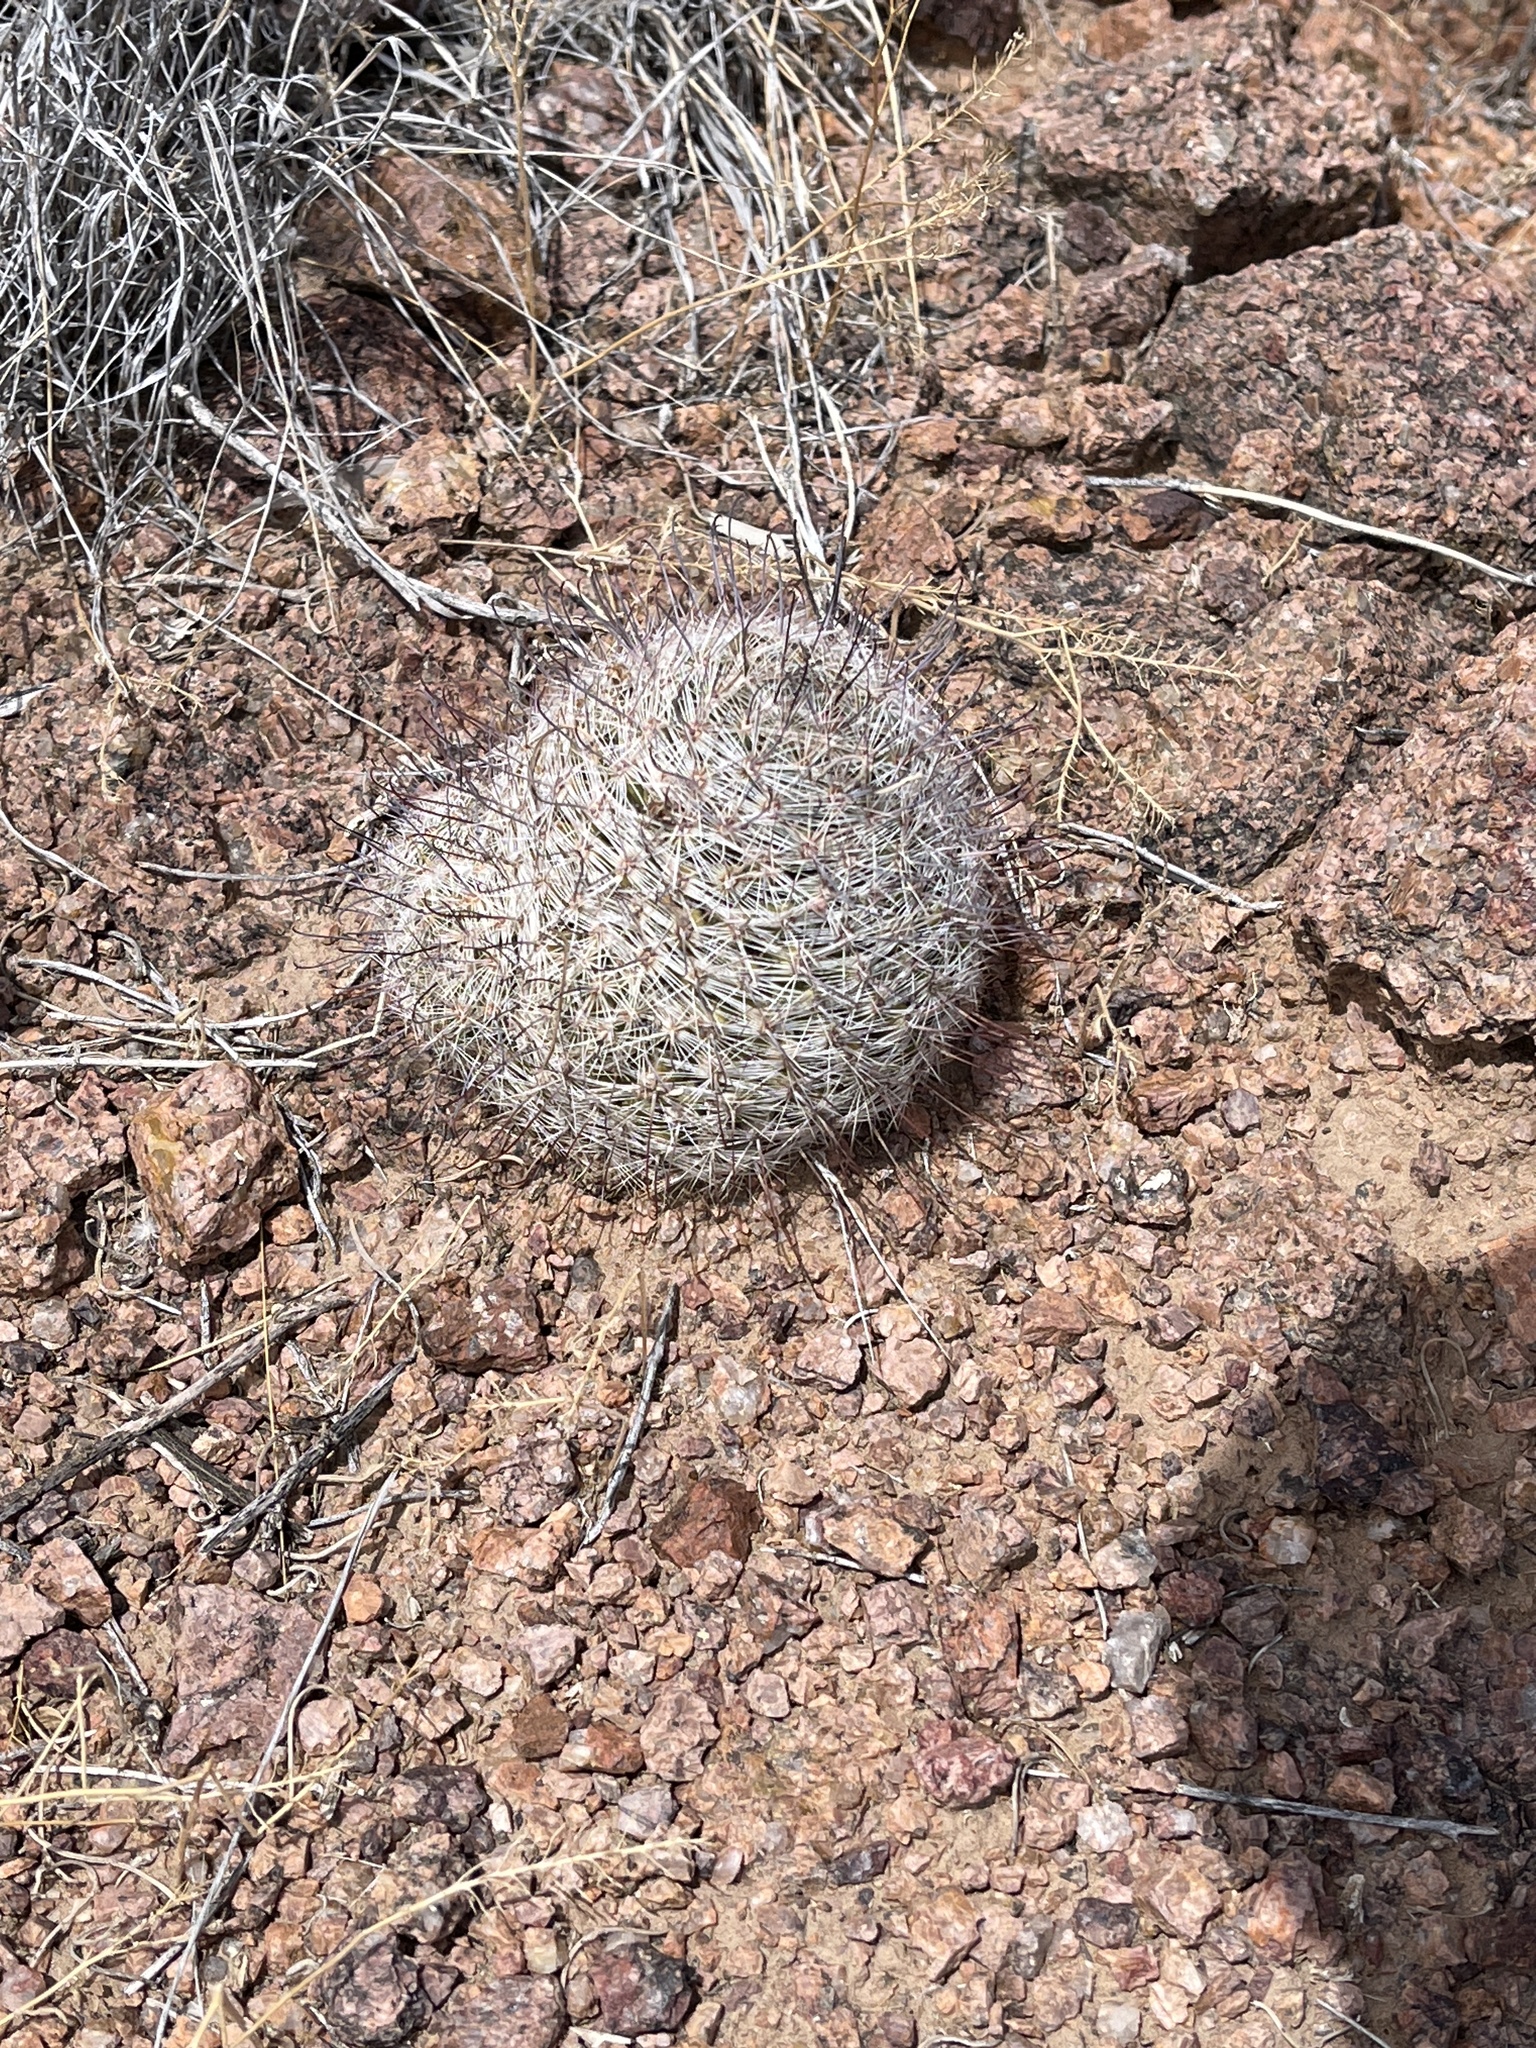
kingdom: Plantae
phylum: Tracheophyta
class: Magnoliopsida
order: Caryophyllales
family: Cactaceae
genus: Cochemiea
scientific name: Cochemiea grahamii
